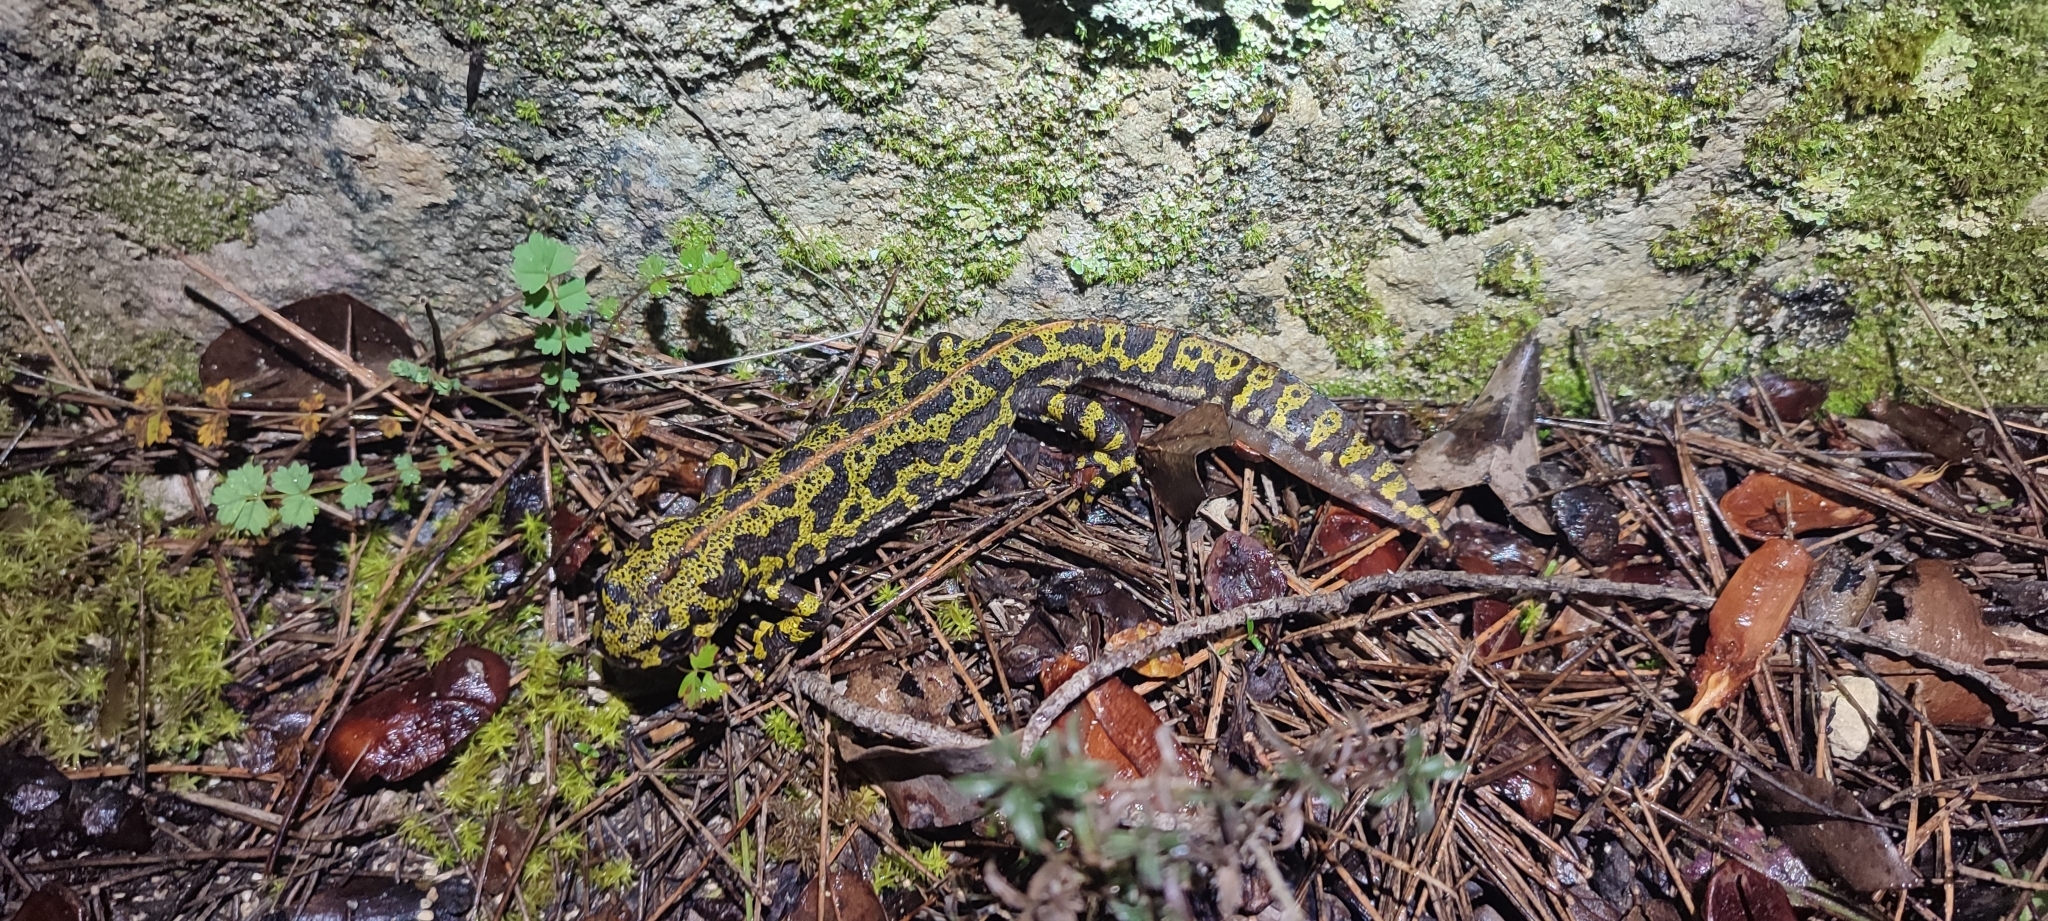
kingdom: Animalia
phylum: Chordata
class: Amphibia
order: Caudata
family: Salamandridae
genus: Triturus
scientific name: Triturus marmoratus
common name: Marbled newt
